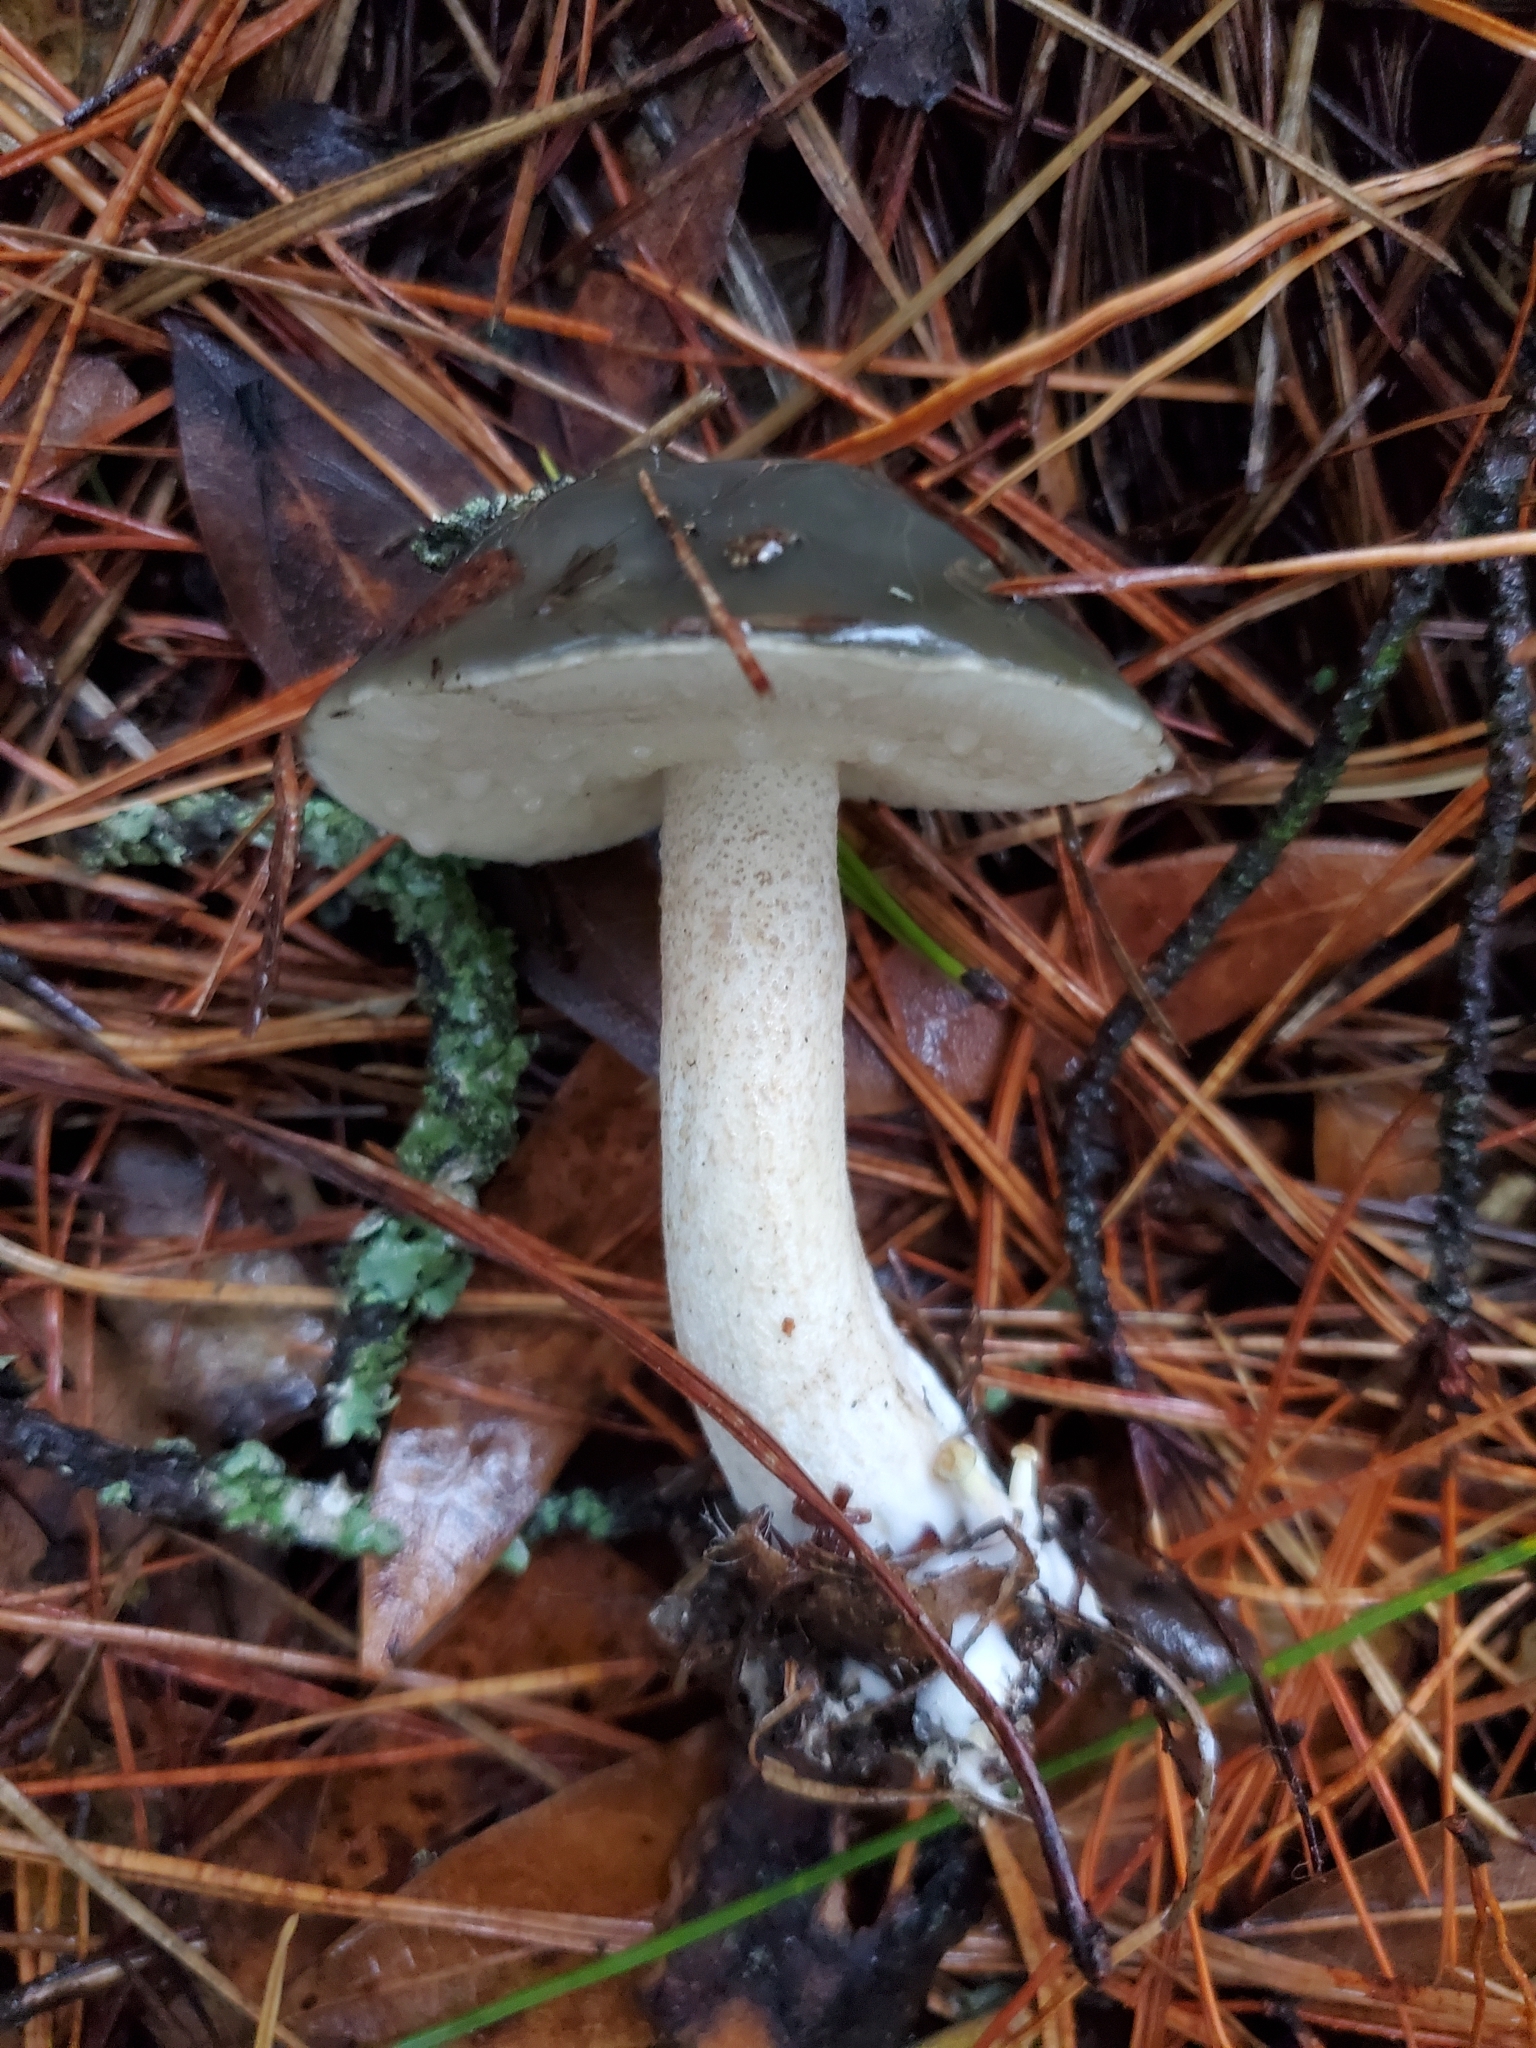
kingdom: Fungi
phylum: Basidiomycota
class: Agaricomycetes
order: Boletales
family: Suillaceae
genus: Suillus
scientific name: Suillus pungens
